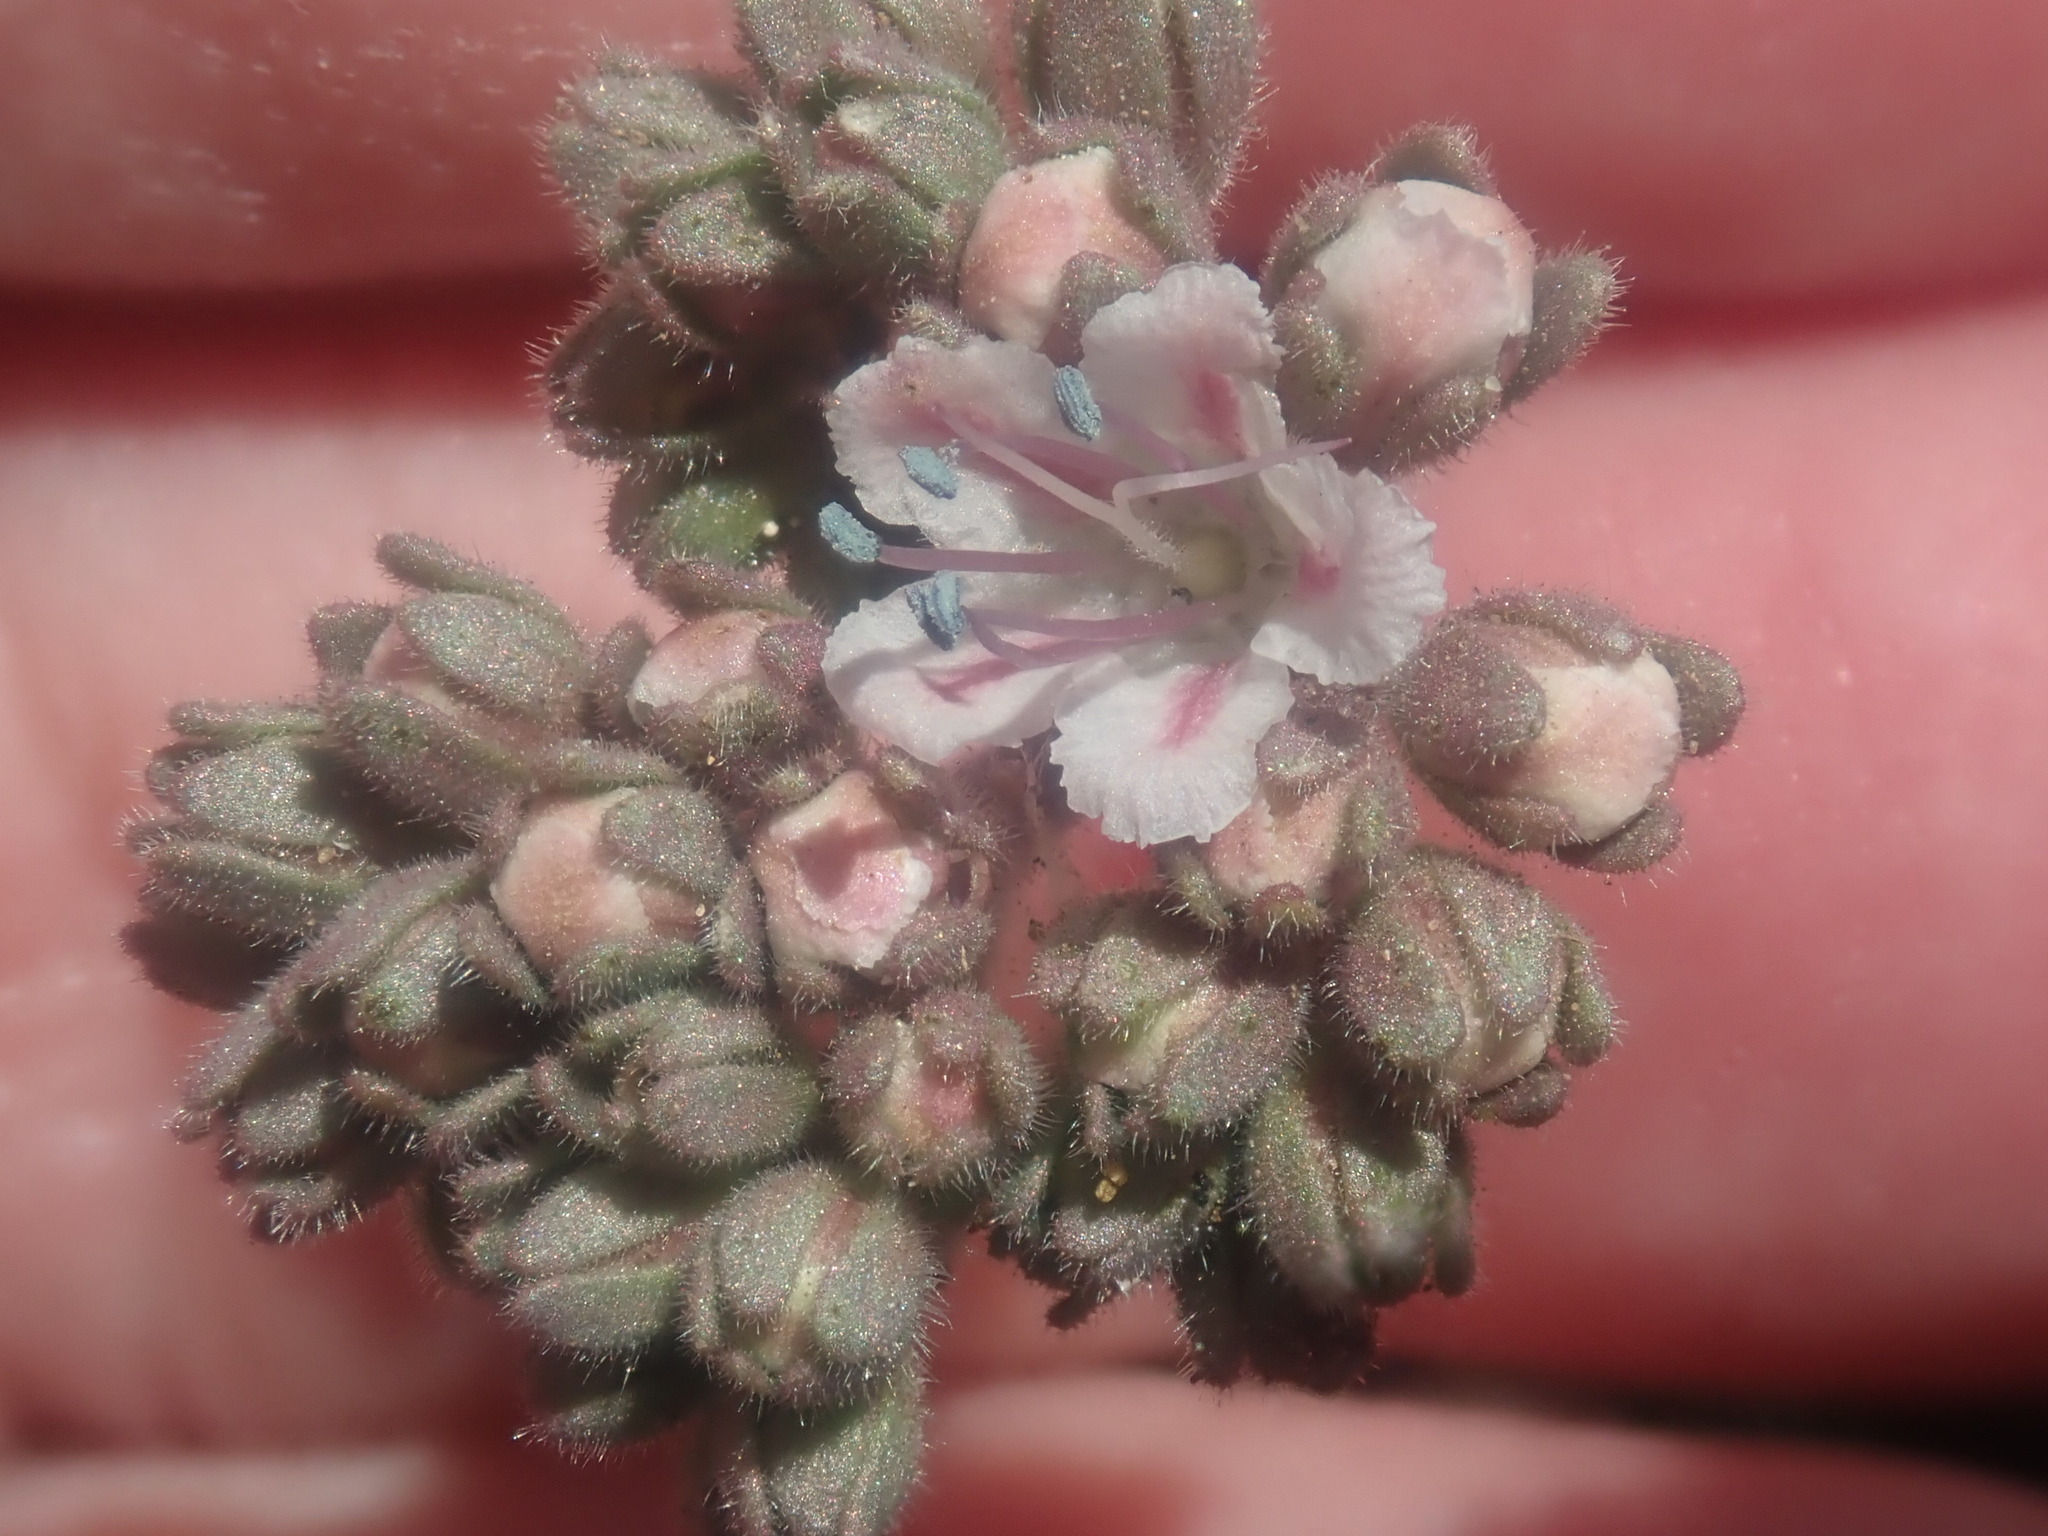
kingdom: Plantae
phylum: Tracheophyta
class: Magnoliopsida
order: Boraginales
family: Hydrophyllaceae
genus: Phacelia
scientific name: Phacelia arizonica
